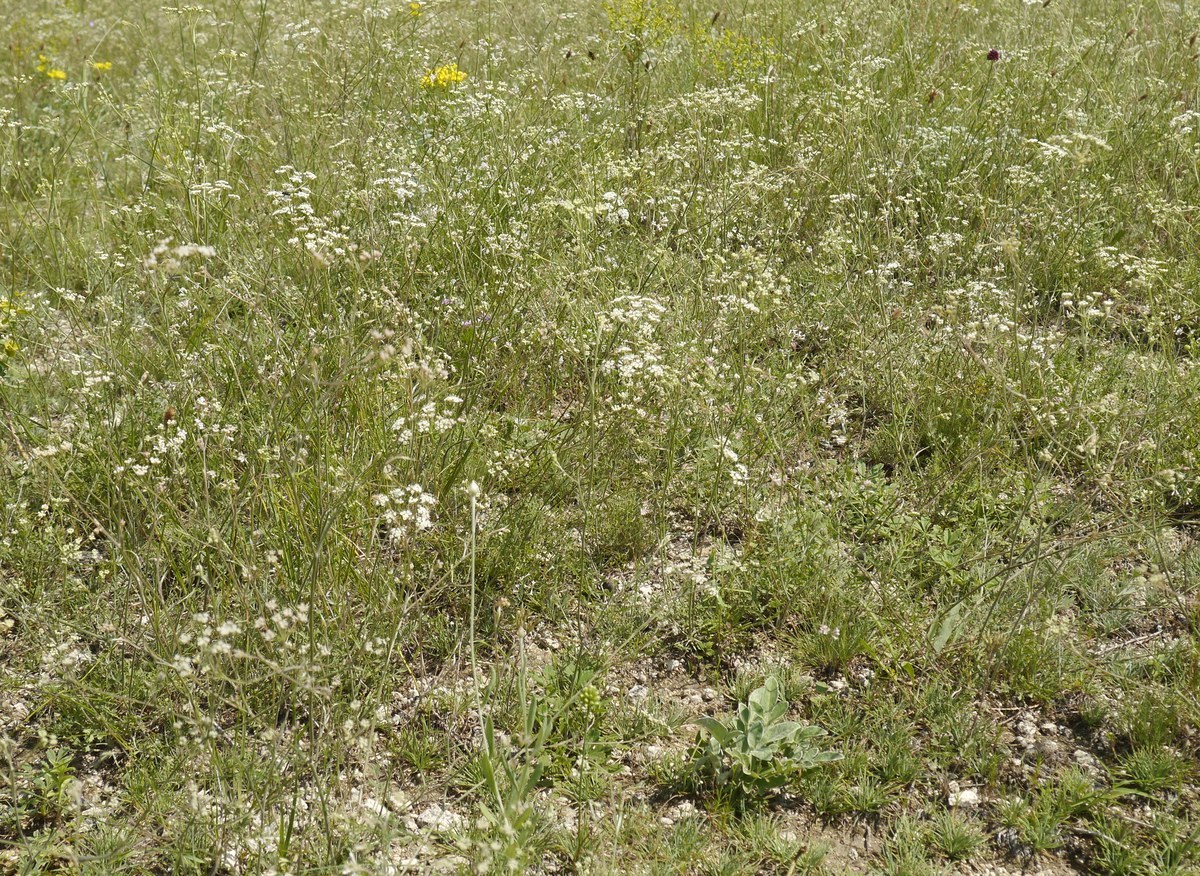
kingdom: Plantae
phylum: Tracheophyta
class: Magnoliopsida
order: Apiales
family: Apiaceae
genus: Pimpinella
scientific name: Pimpinella tragium
